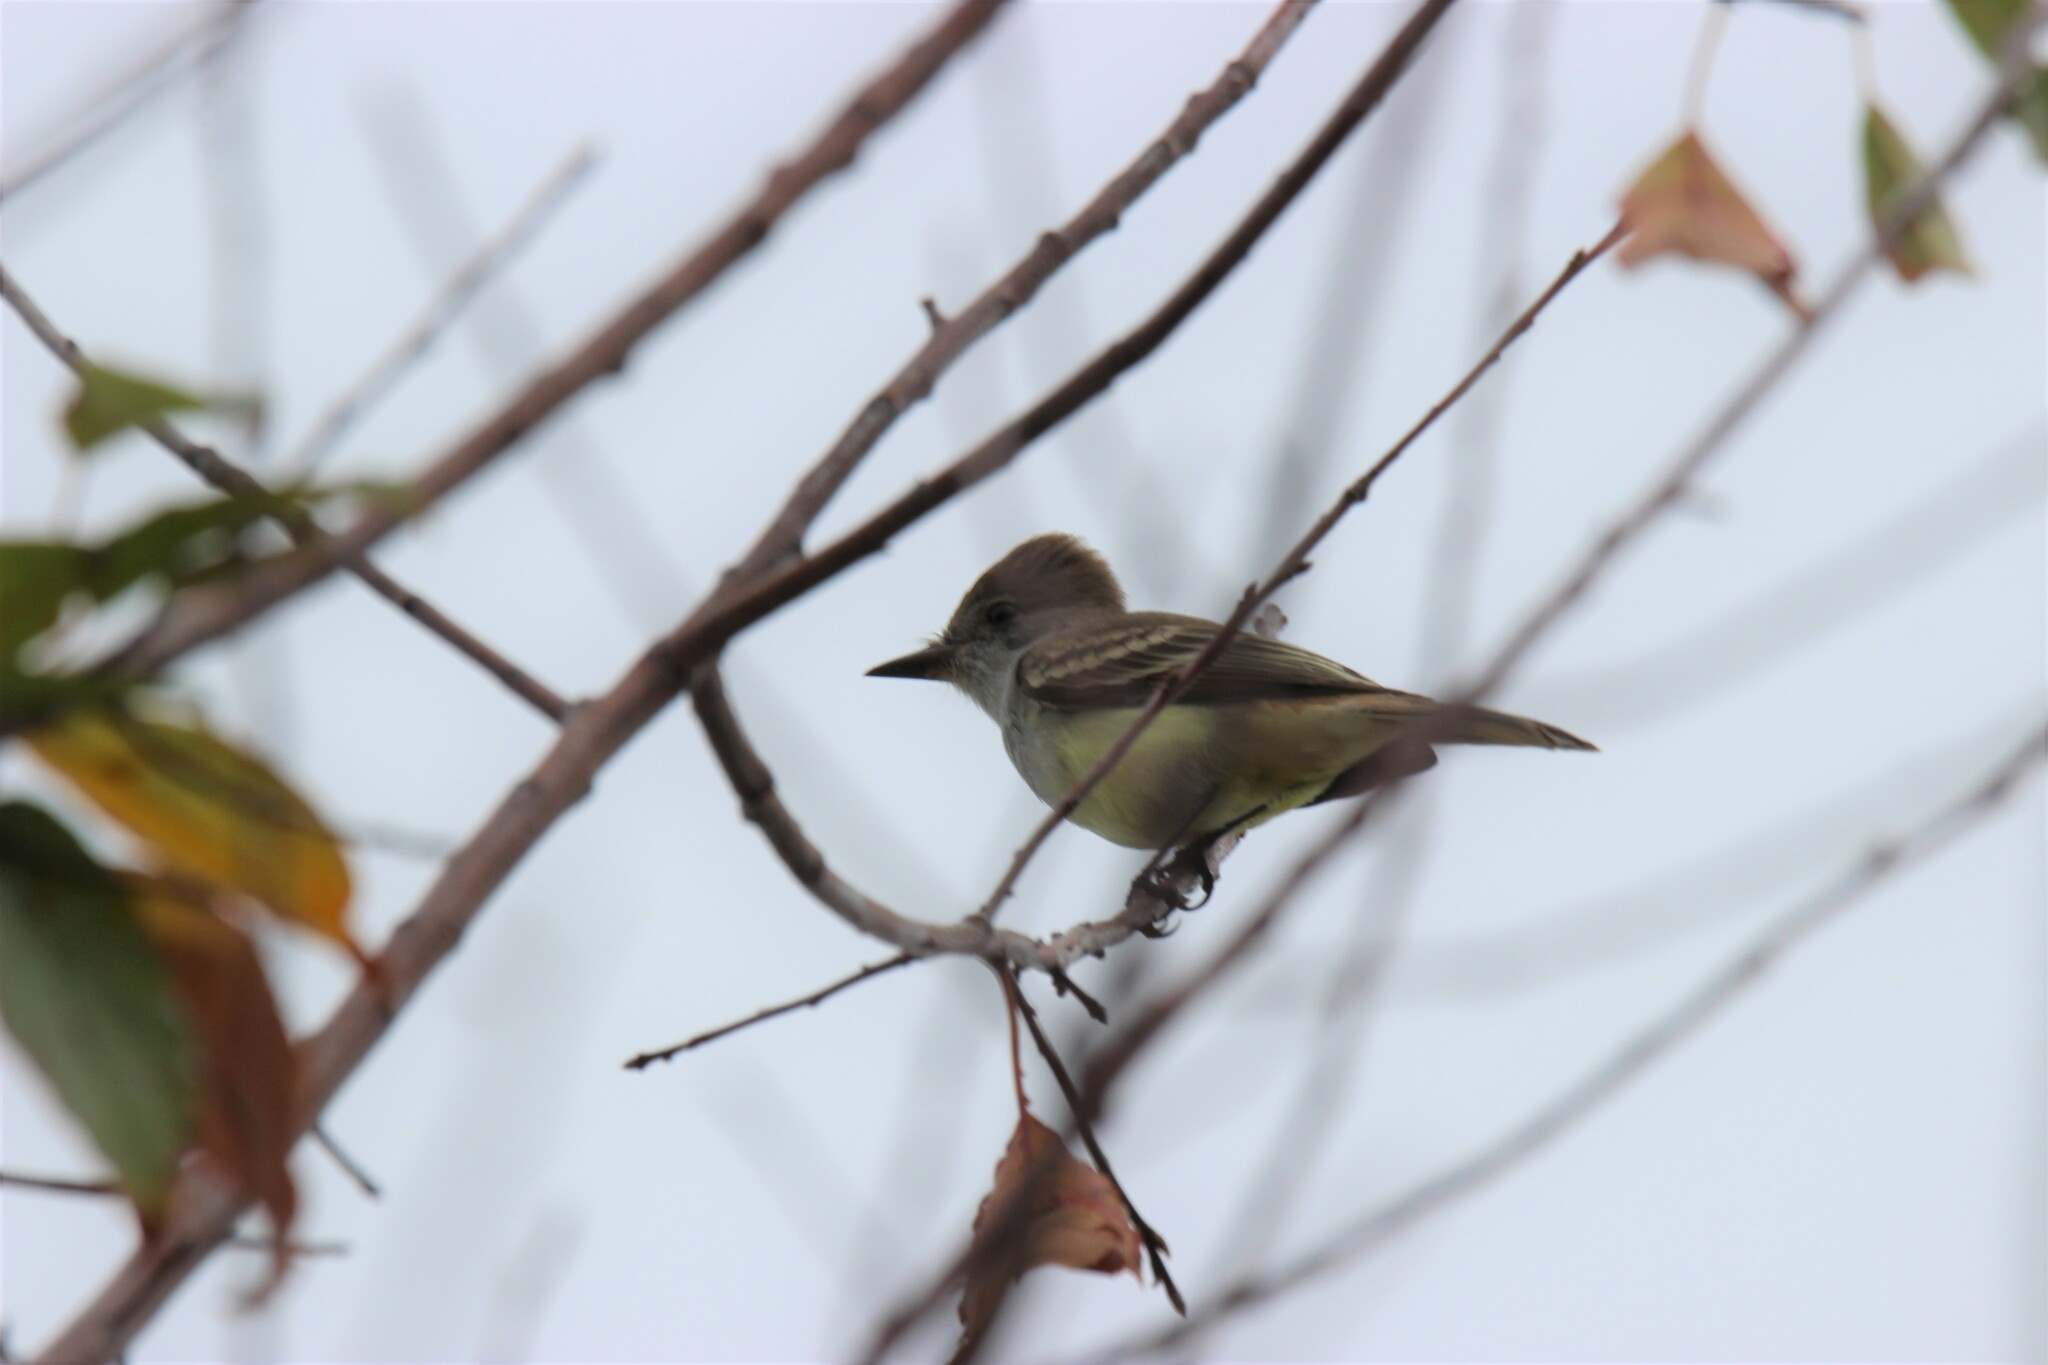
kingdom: Animalia
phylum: Chordata
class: Aves
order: Passeriformes
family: Tyrannidae
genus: Myiarchus
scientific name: Myiarchus cinerascens
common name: Ash-throated flycatcher
